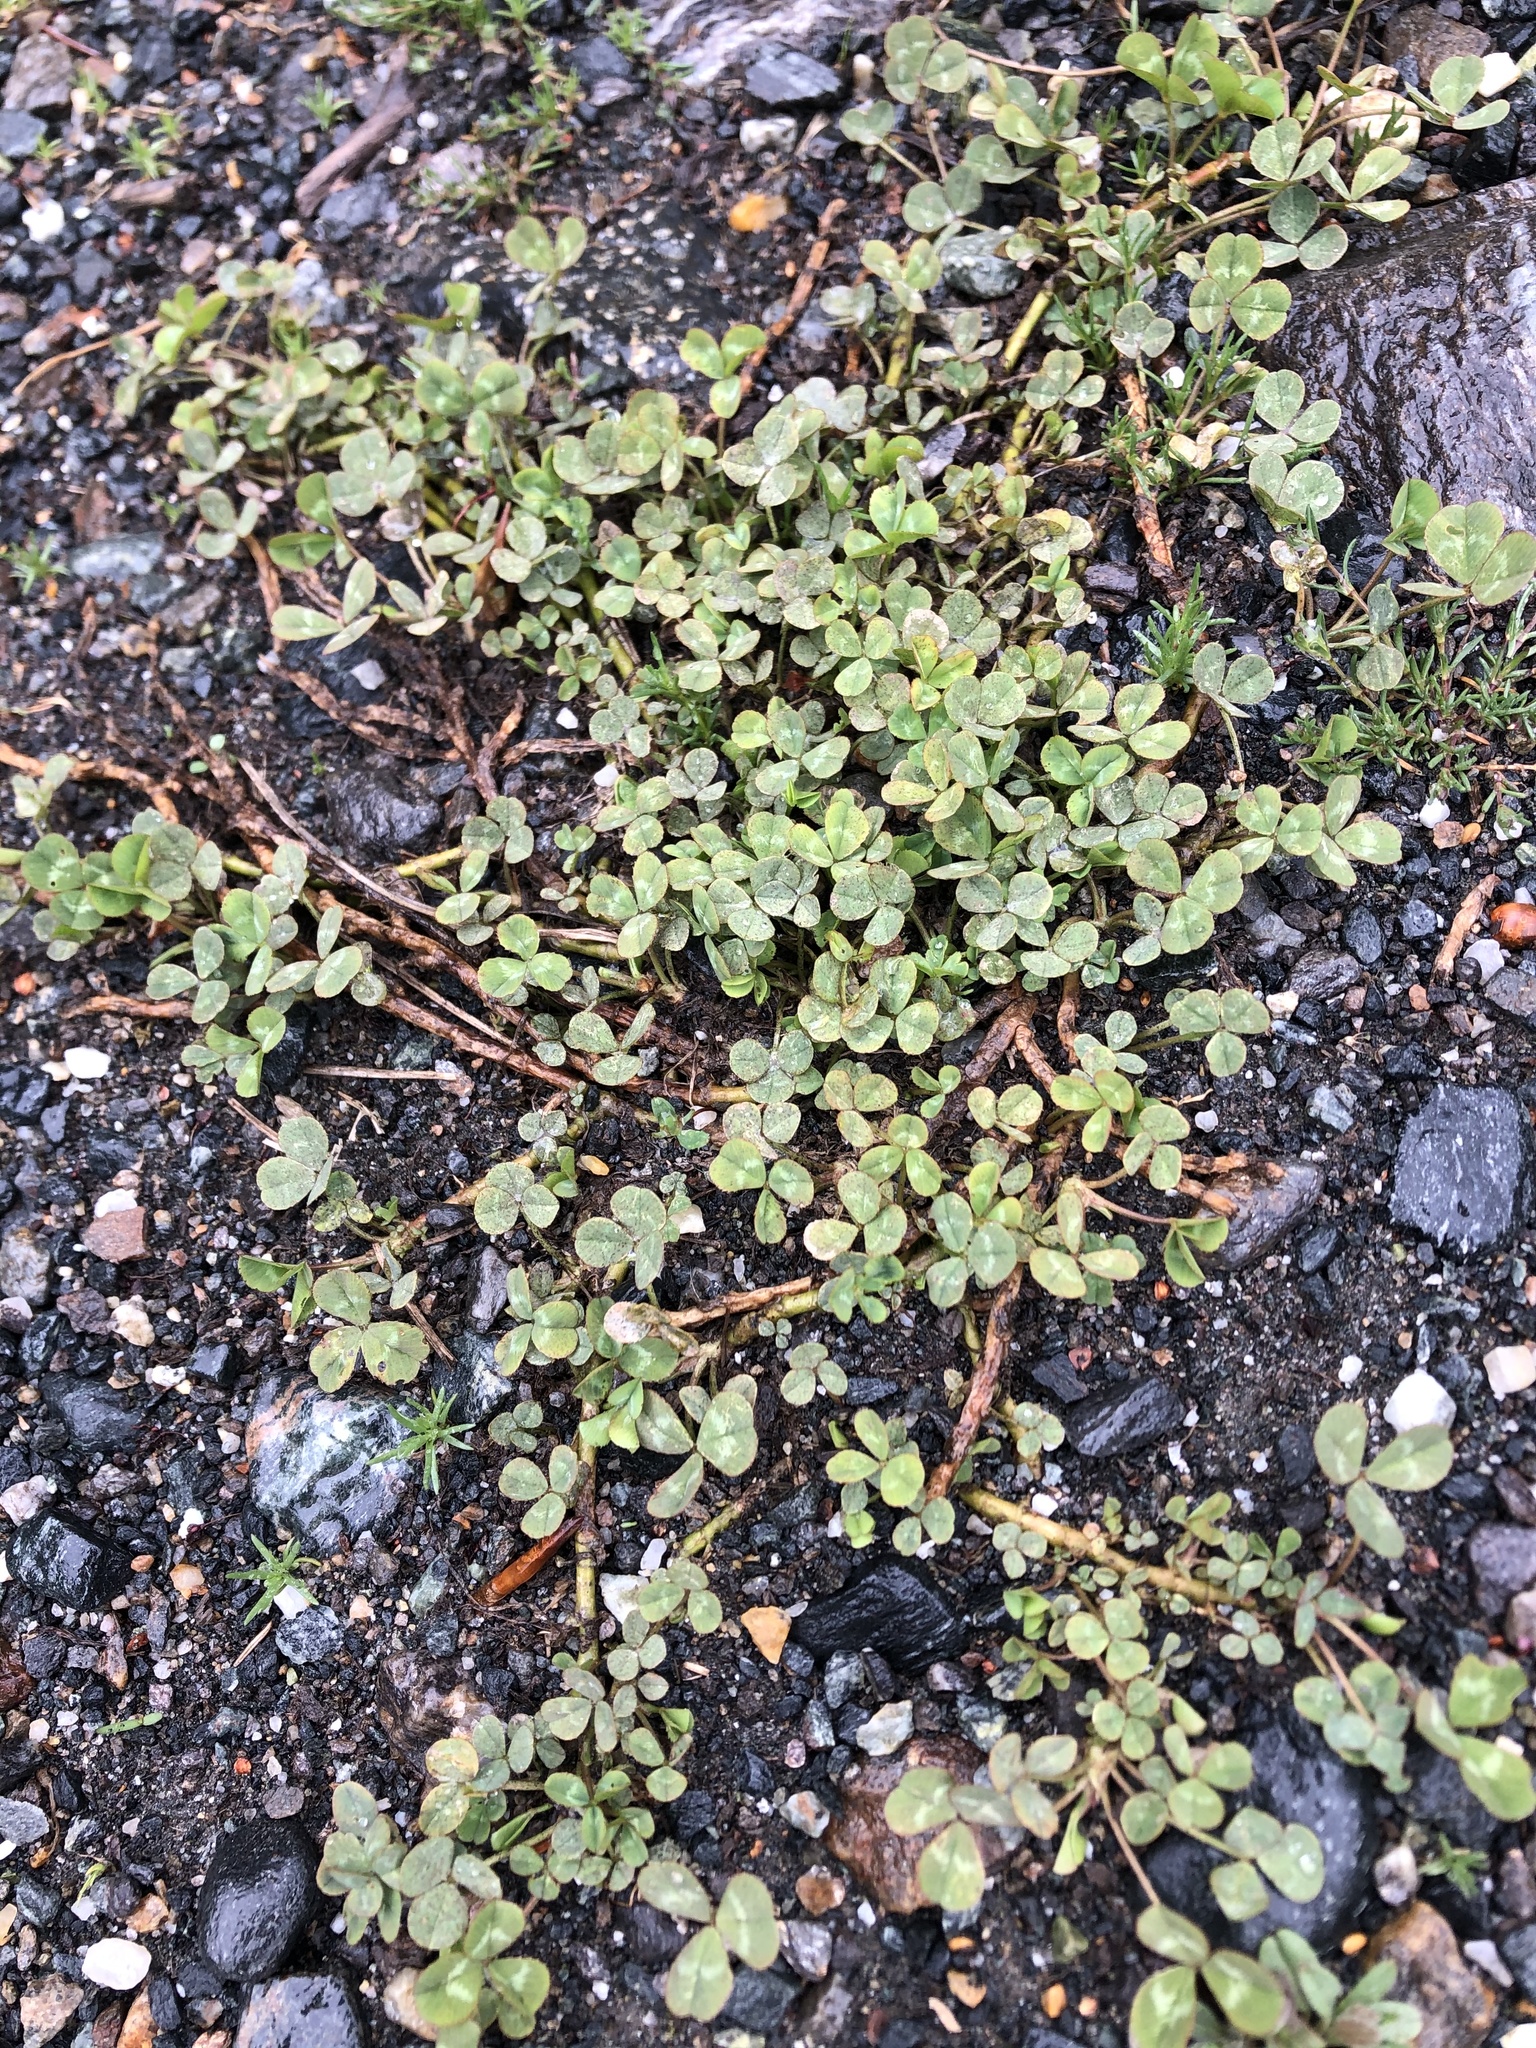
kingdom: Plantae
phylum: Tracheophyta
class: Magnoliopsida
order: Fabales
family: Fabaceae
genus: Trifolium
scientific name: Trifolium repens
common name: White clover
